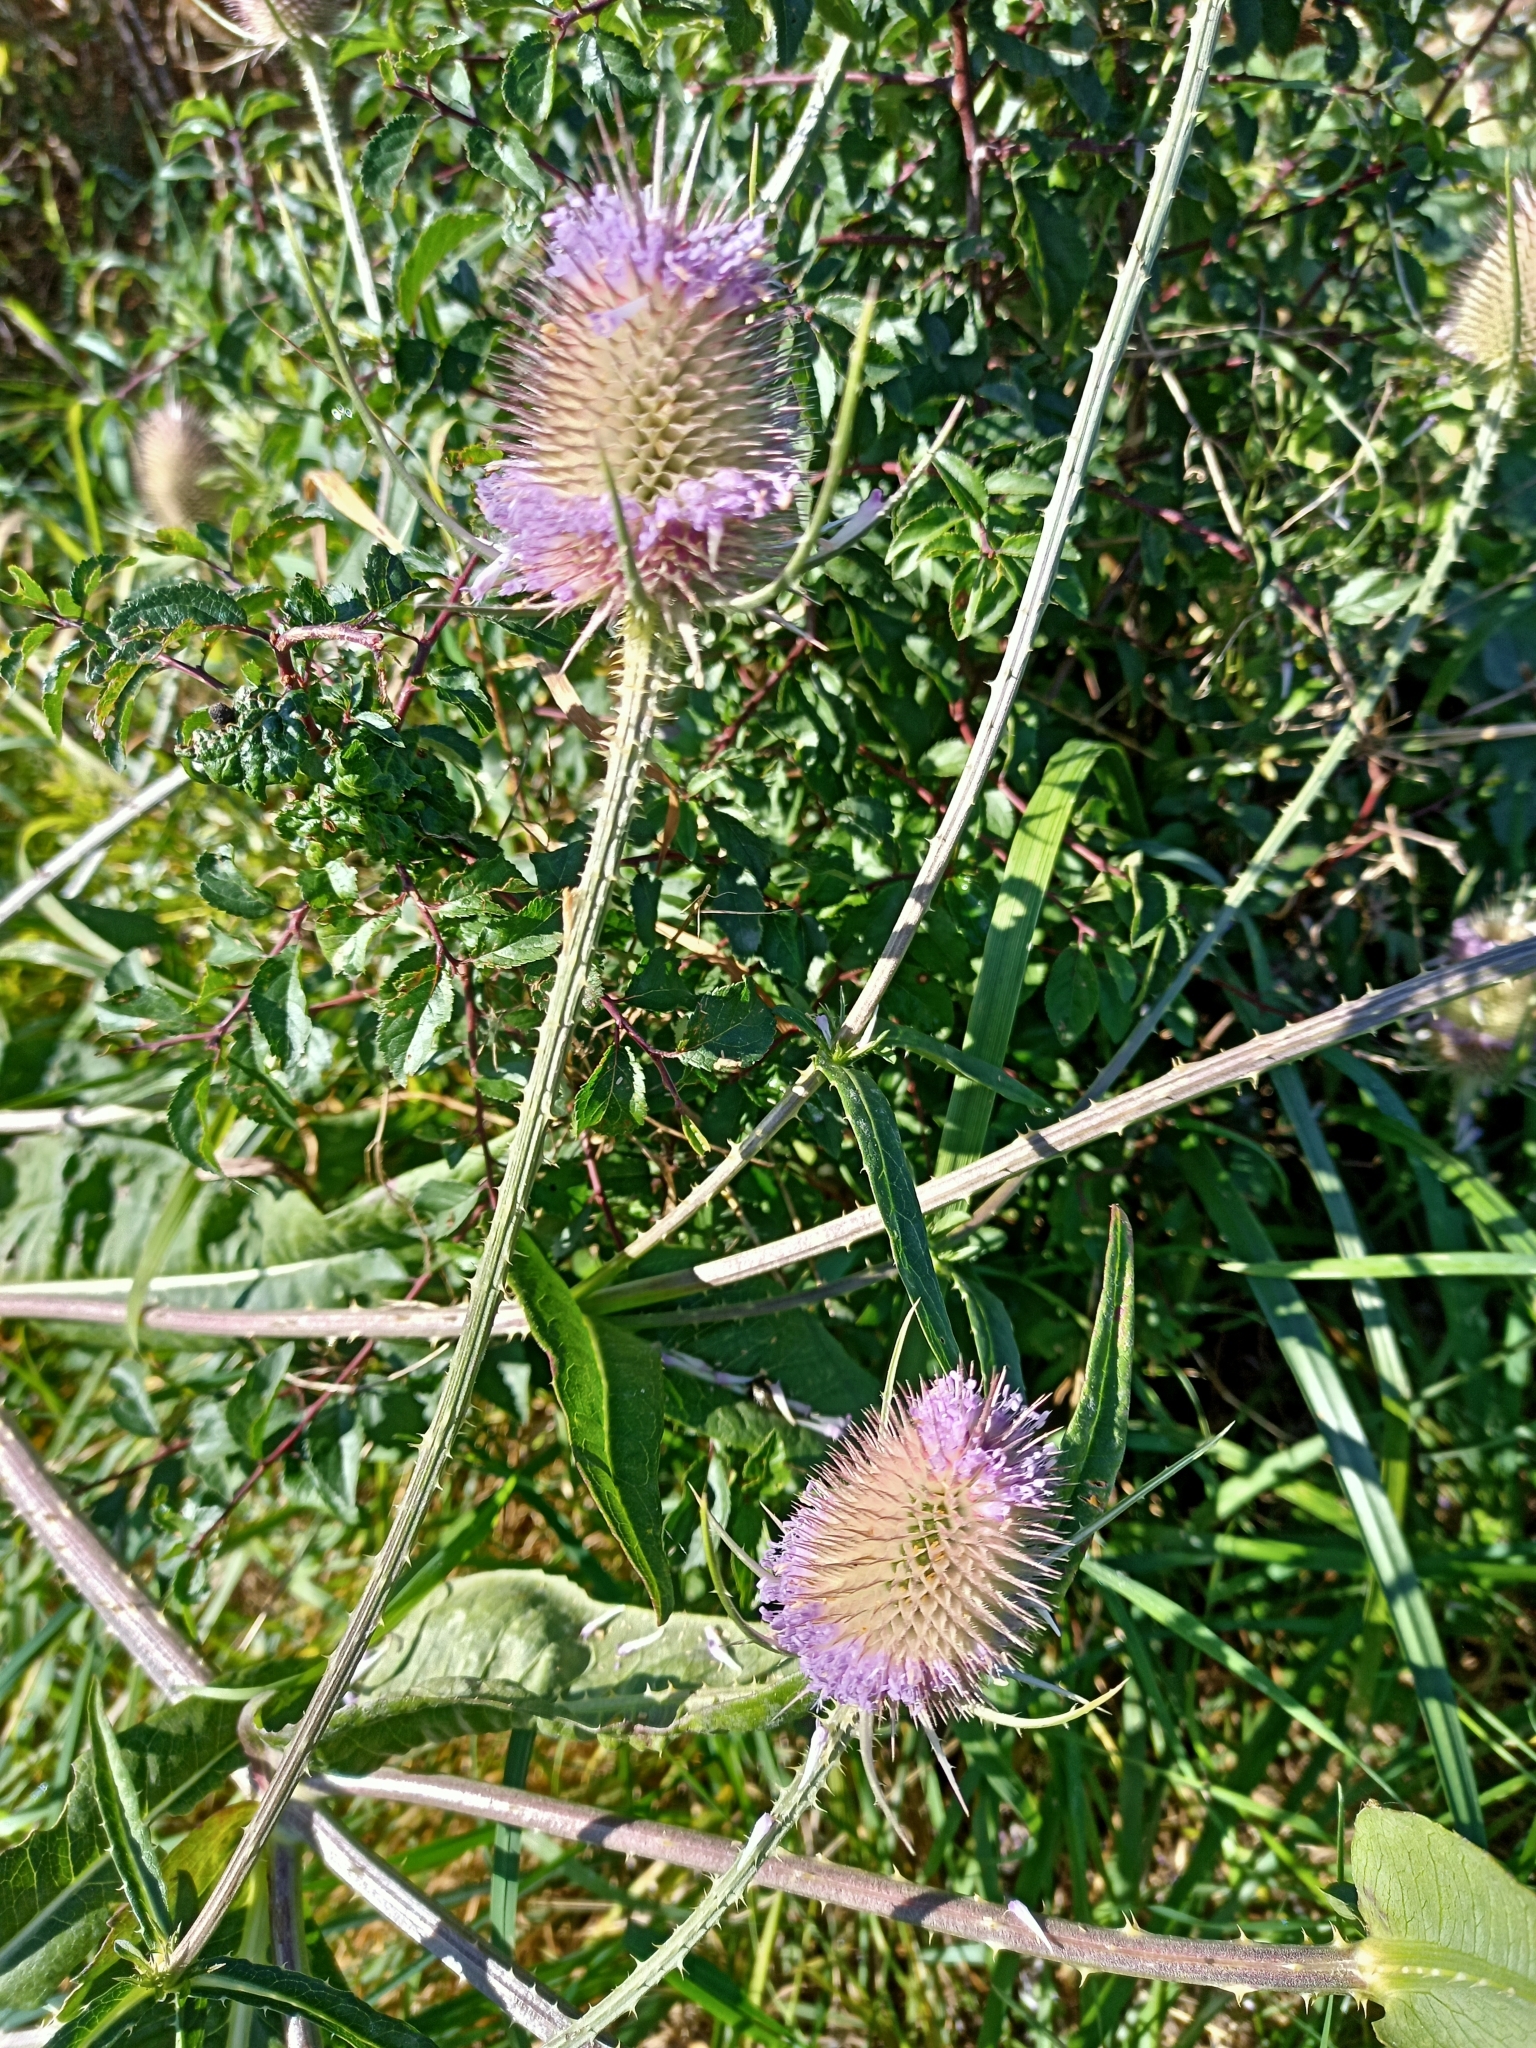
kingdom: Plantae
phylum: Tracheophyta
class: Magnoliopsida
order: Dipsacales
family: Caprifoliaceae
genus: Dipsacus
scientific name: Dipsacus fullonum
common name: Teasel
